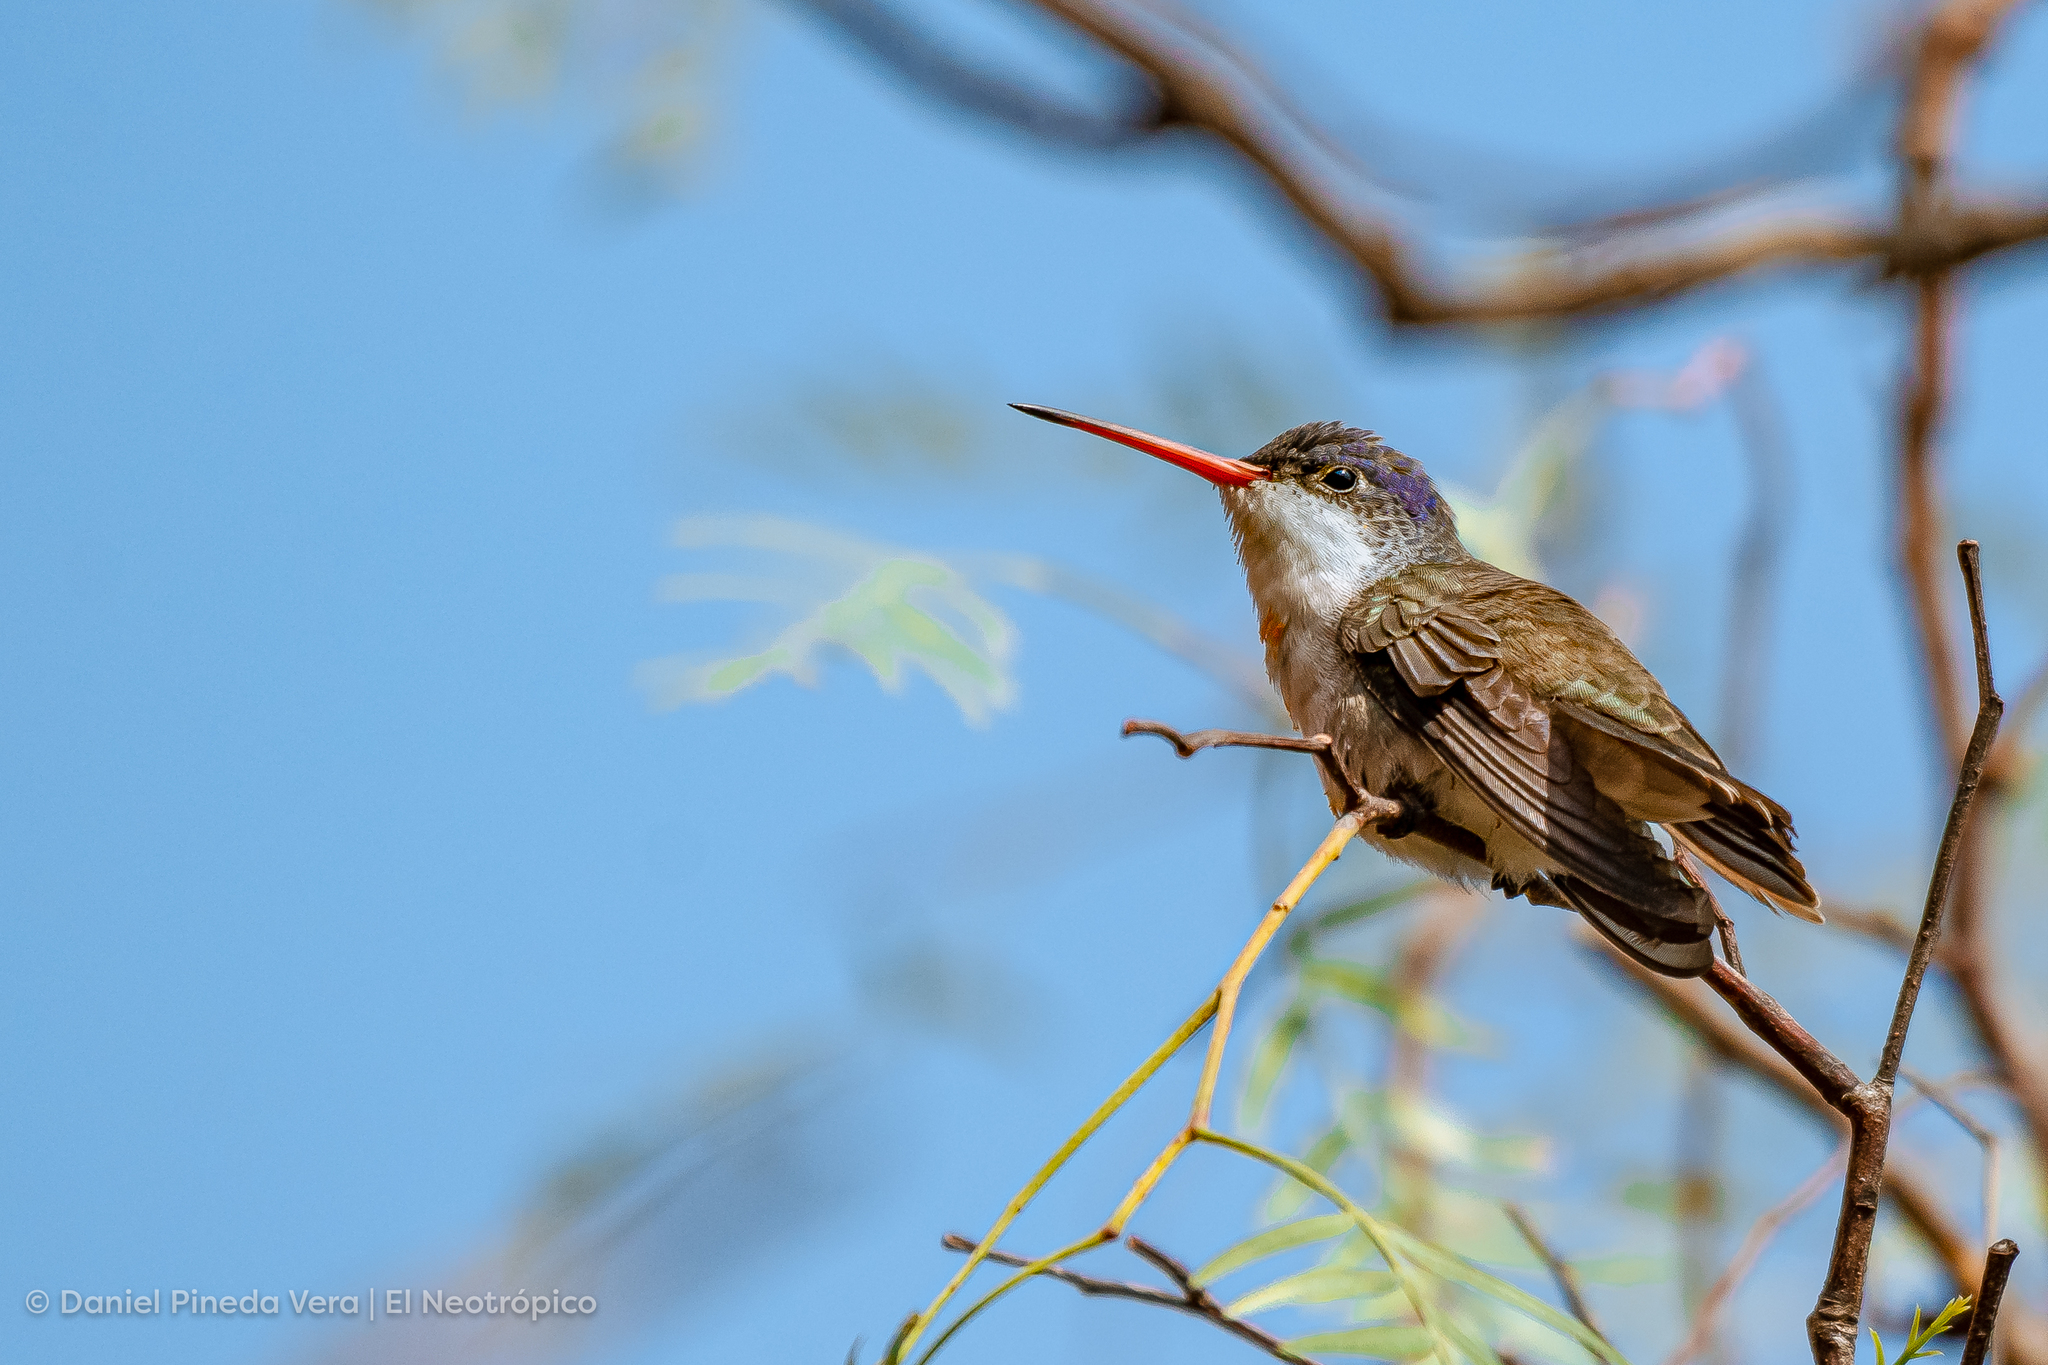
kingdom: Animalia
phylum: Chordata
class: Aves
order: Apodiformes
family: Trochilidae
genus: Leucolia
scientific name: Leucolia violiceps
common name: Violet-crowned hummingbird
